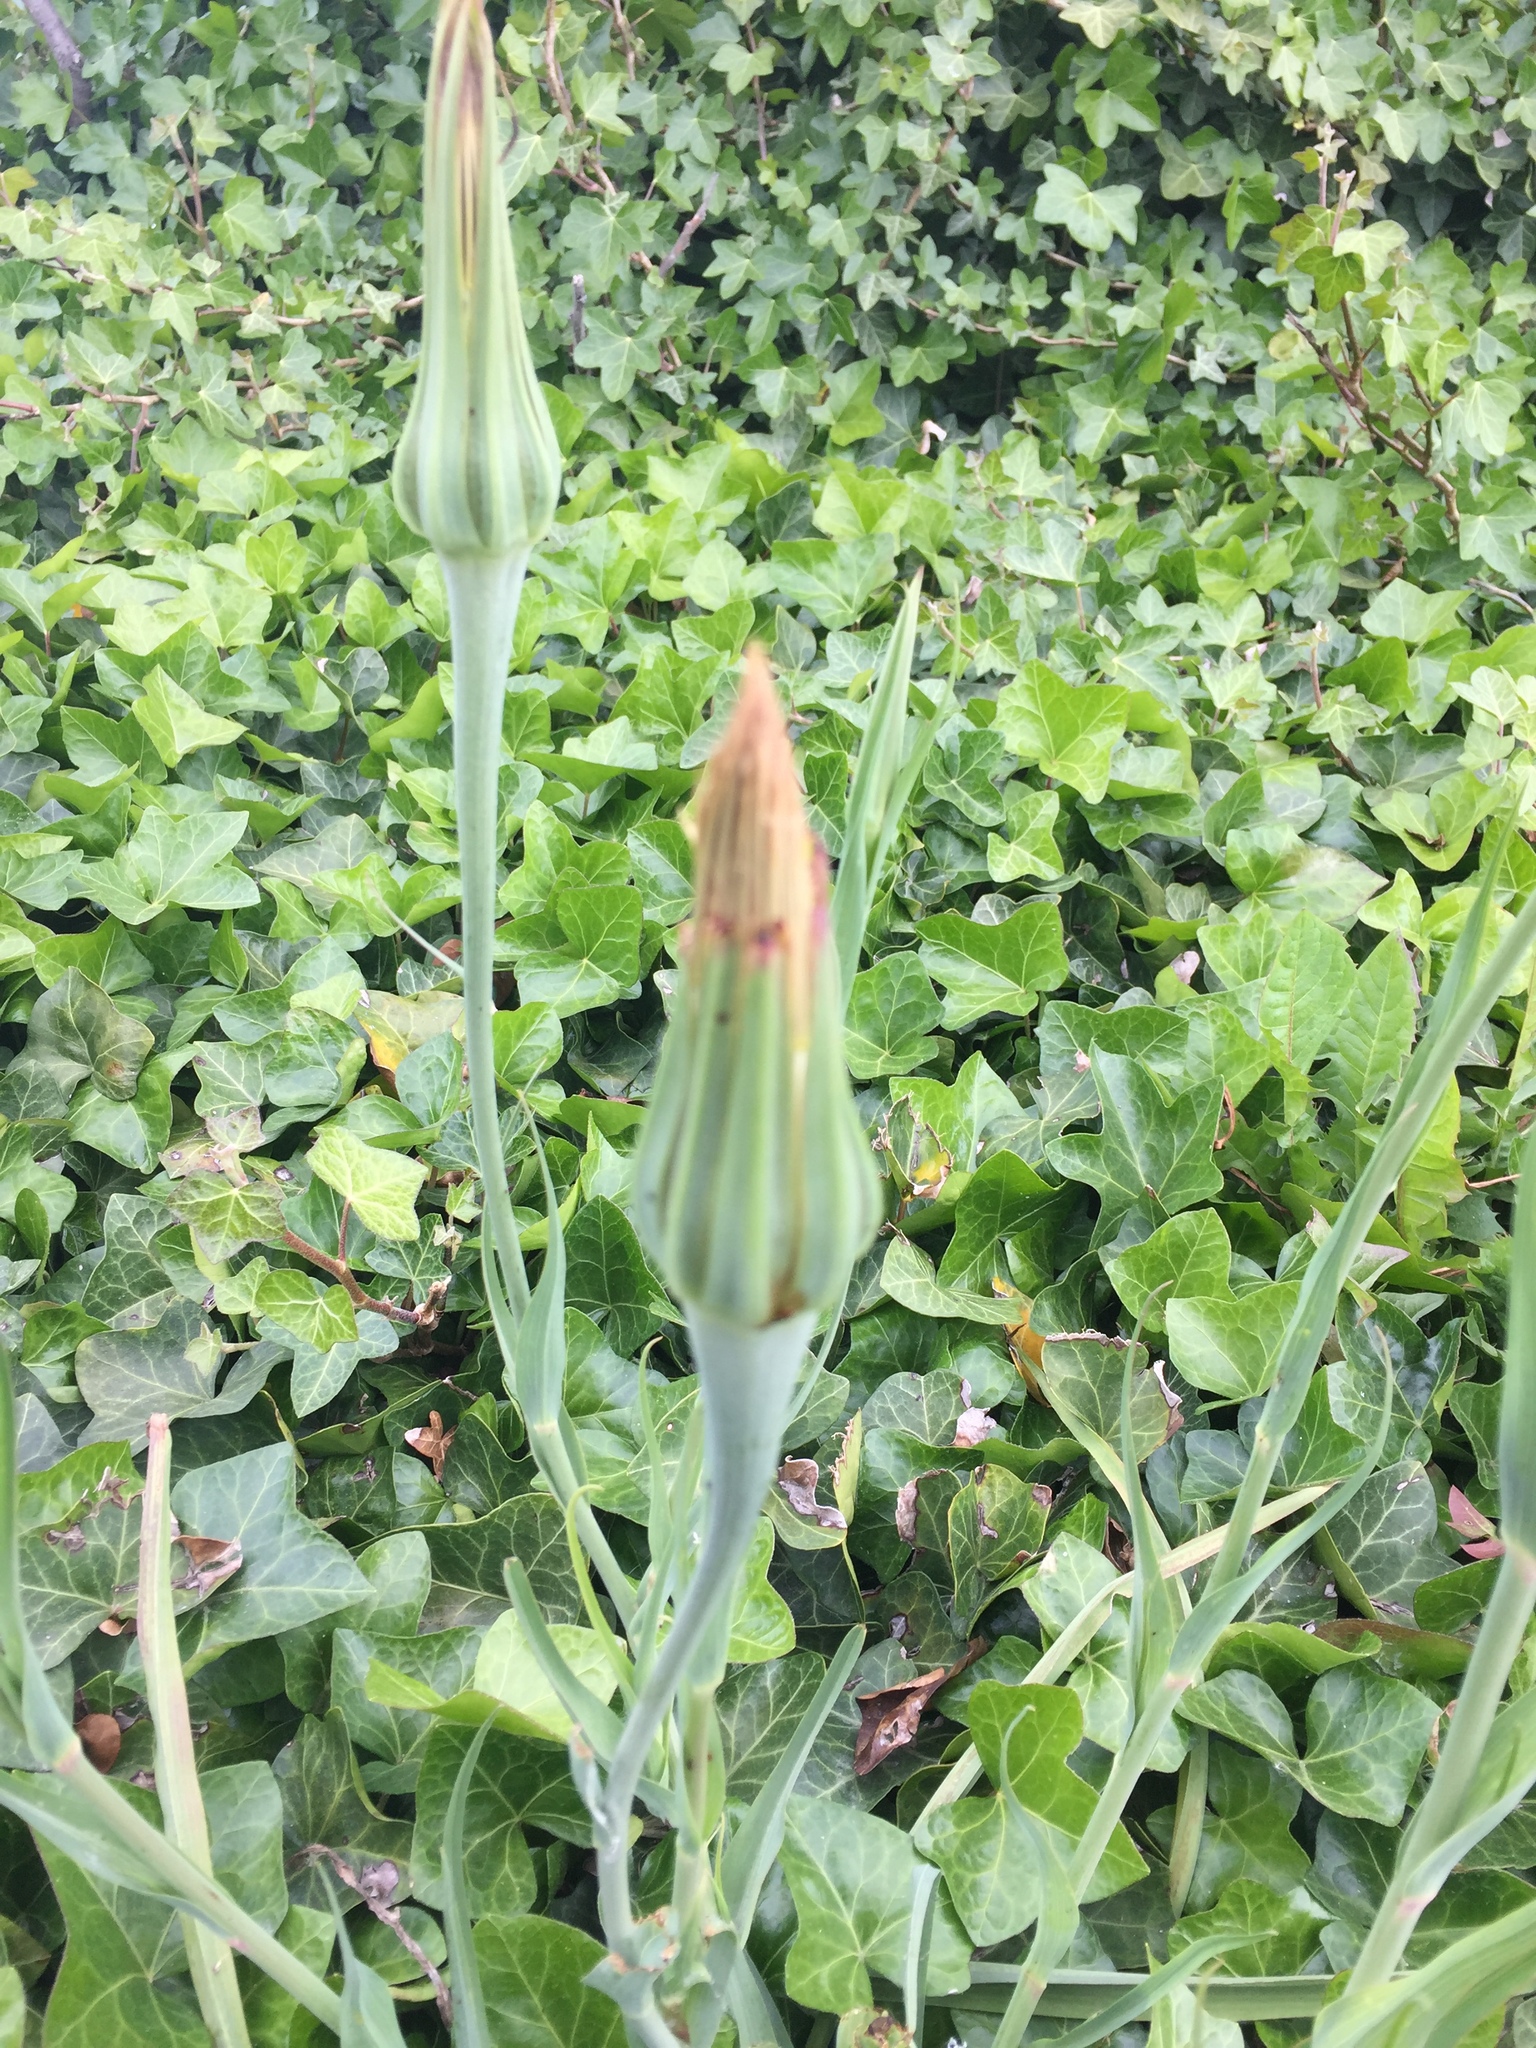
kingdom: Plantae
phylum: Tracheophyta
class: Magnoliopsida
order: Asterales
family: Asteraceae
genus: Tragopogon
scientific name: Tragopogon porrifolius
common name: Salsify
